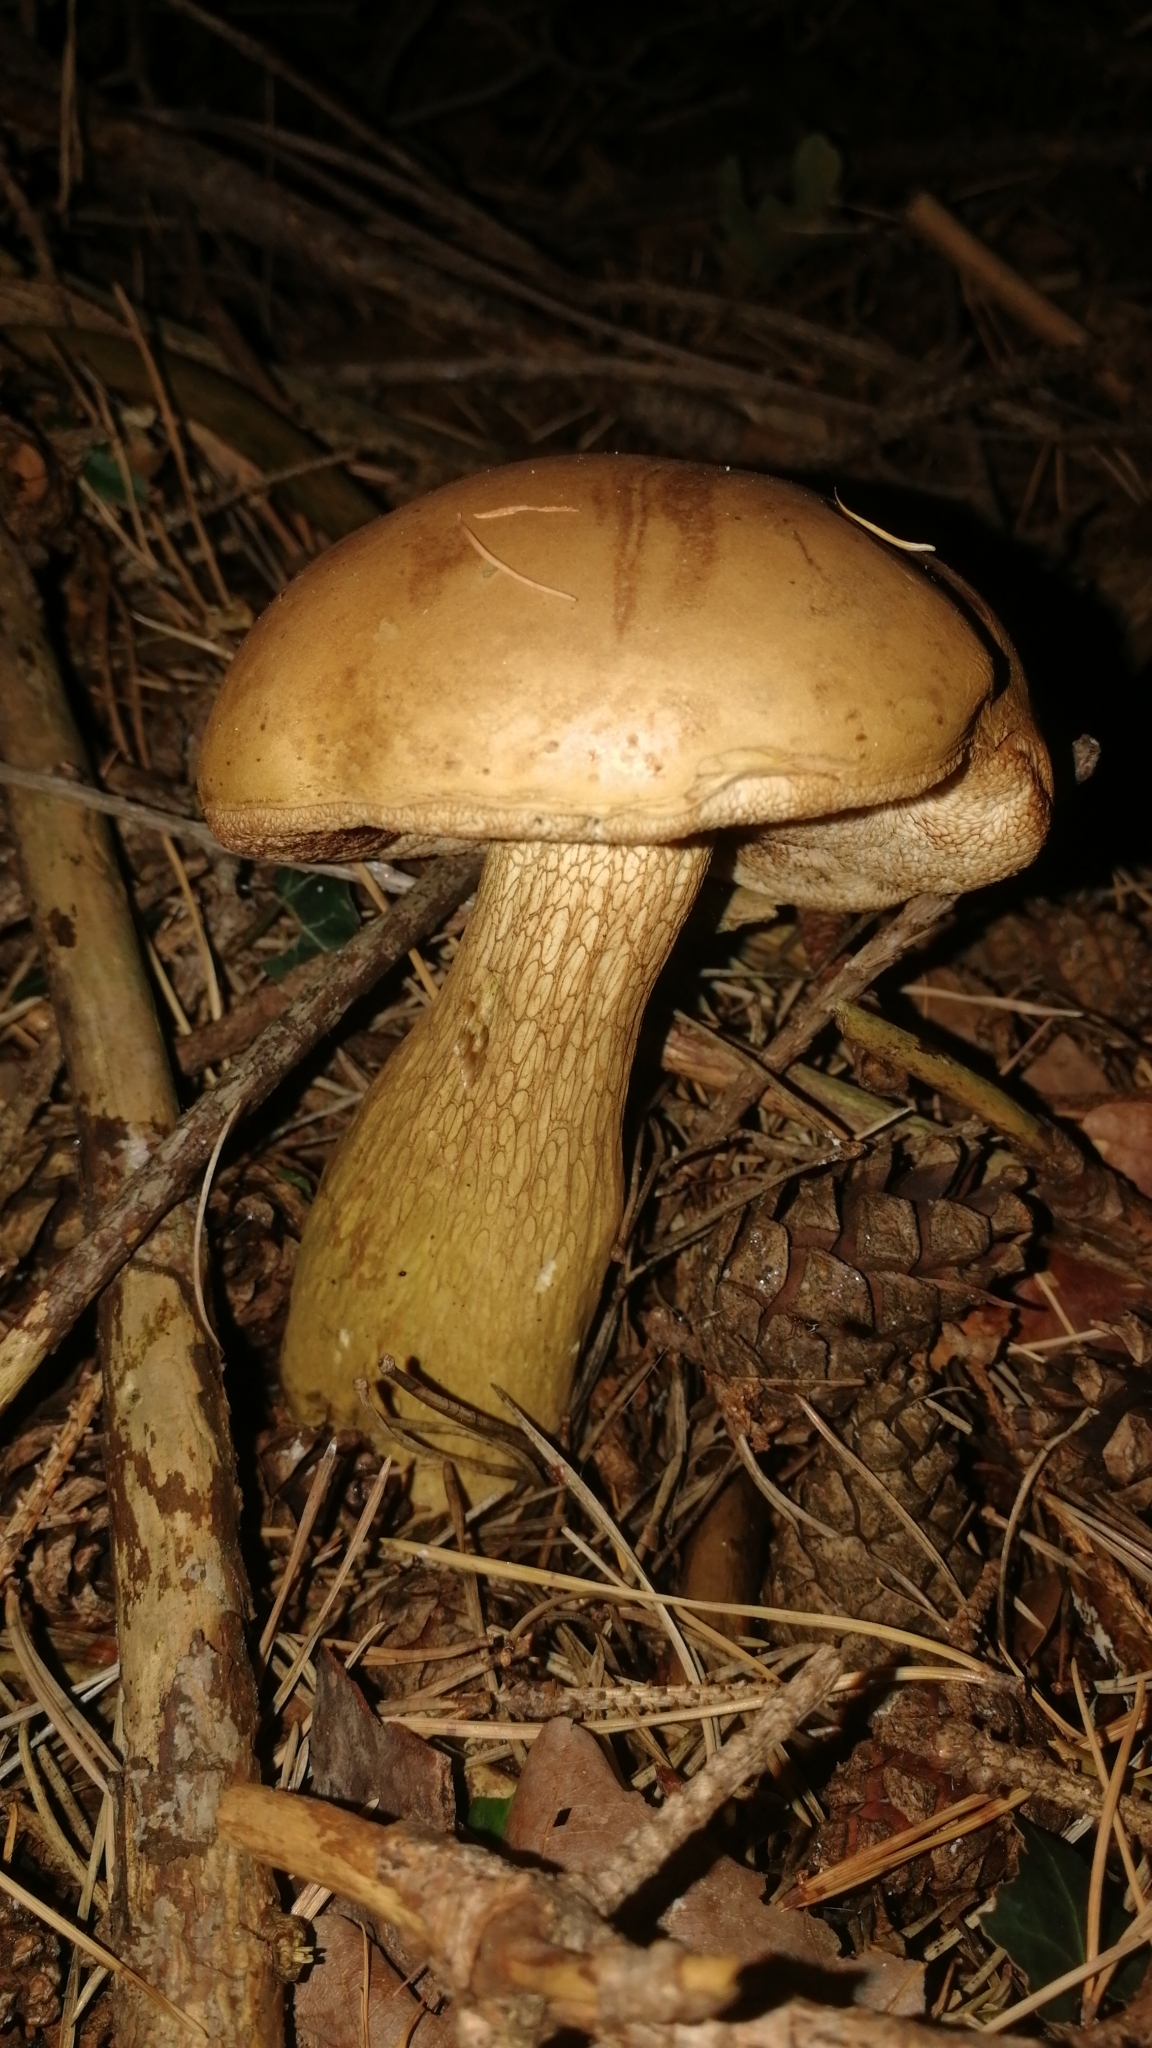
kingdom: Fungi
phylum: Basidiomycota
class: Agaricomycetes
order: Boletales
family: Boletaceae
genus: Tylopilus
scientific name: Tylopilus felleus
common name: Bitter bolete
